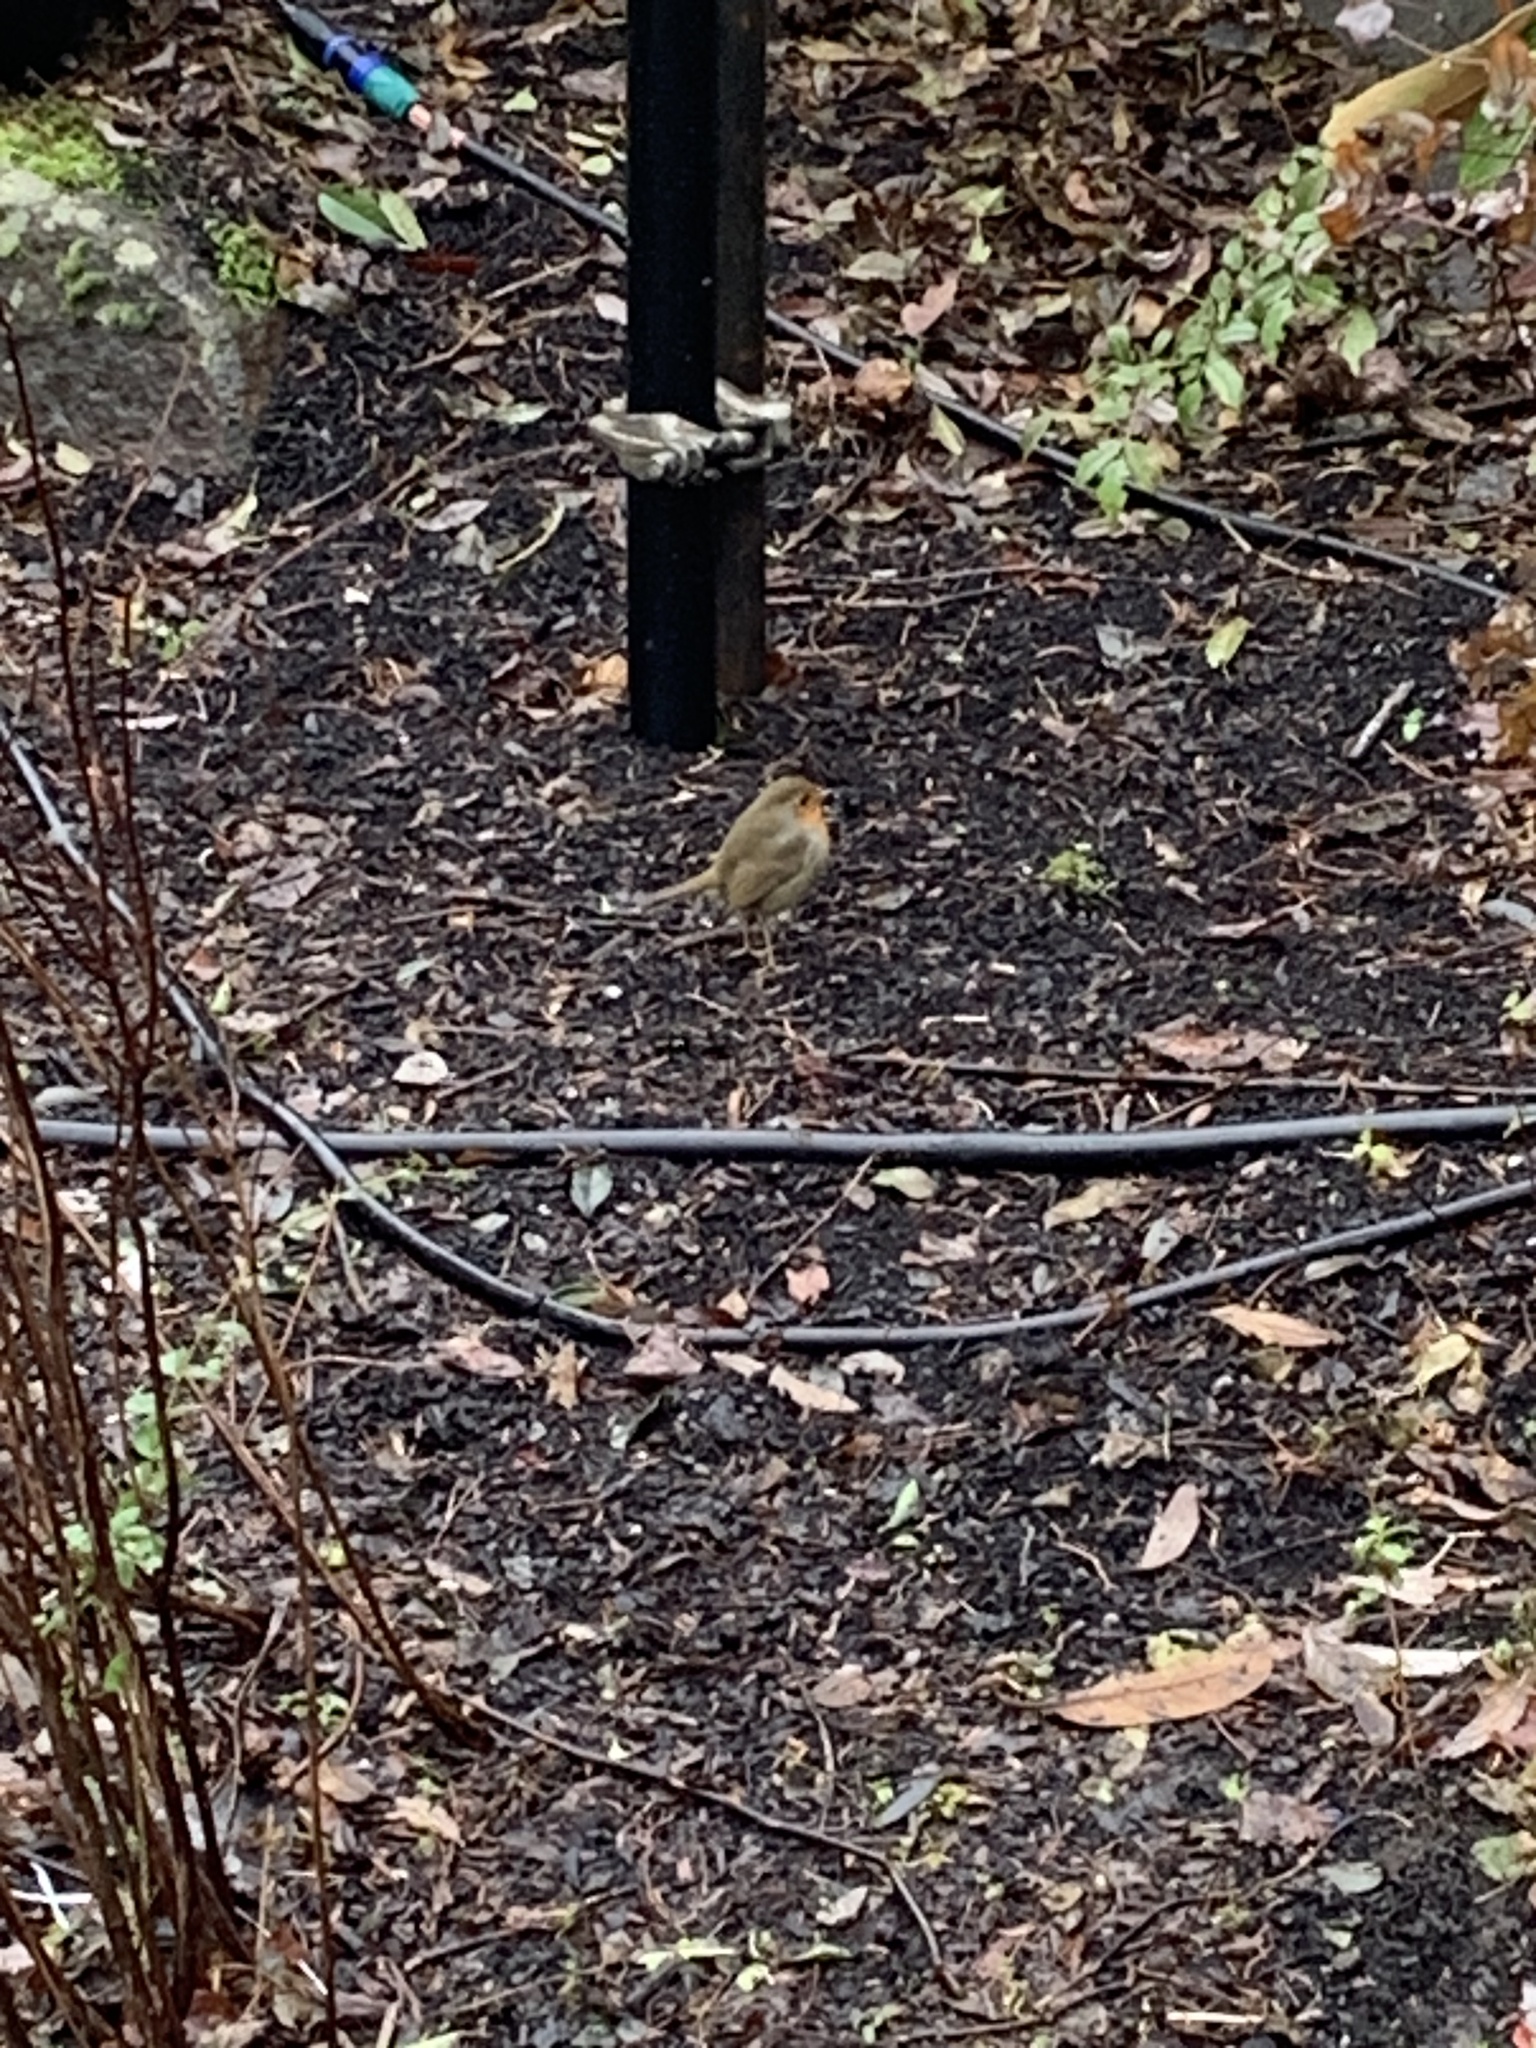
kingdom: Animalia
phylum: Chordata
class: Aves
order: Passeriformes
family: Muscicapidae
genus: Erithacus
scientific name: Erithacus rubecula
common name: European robin
